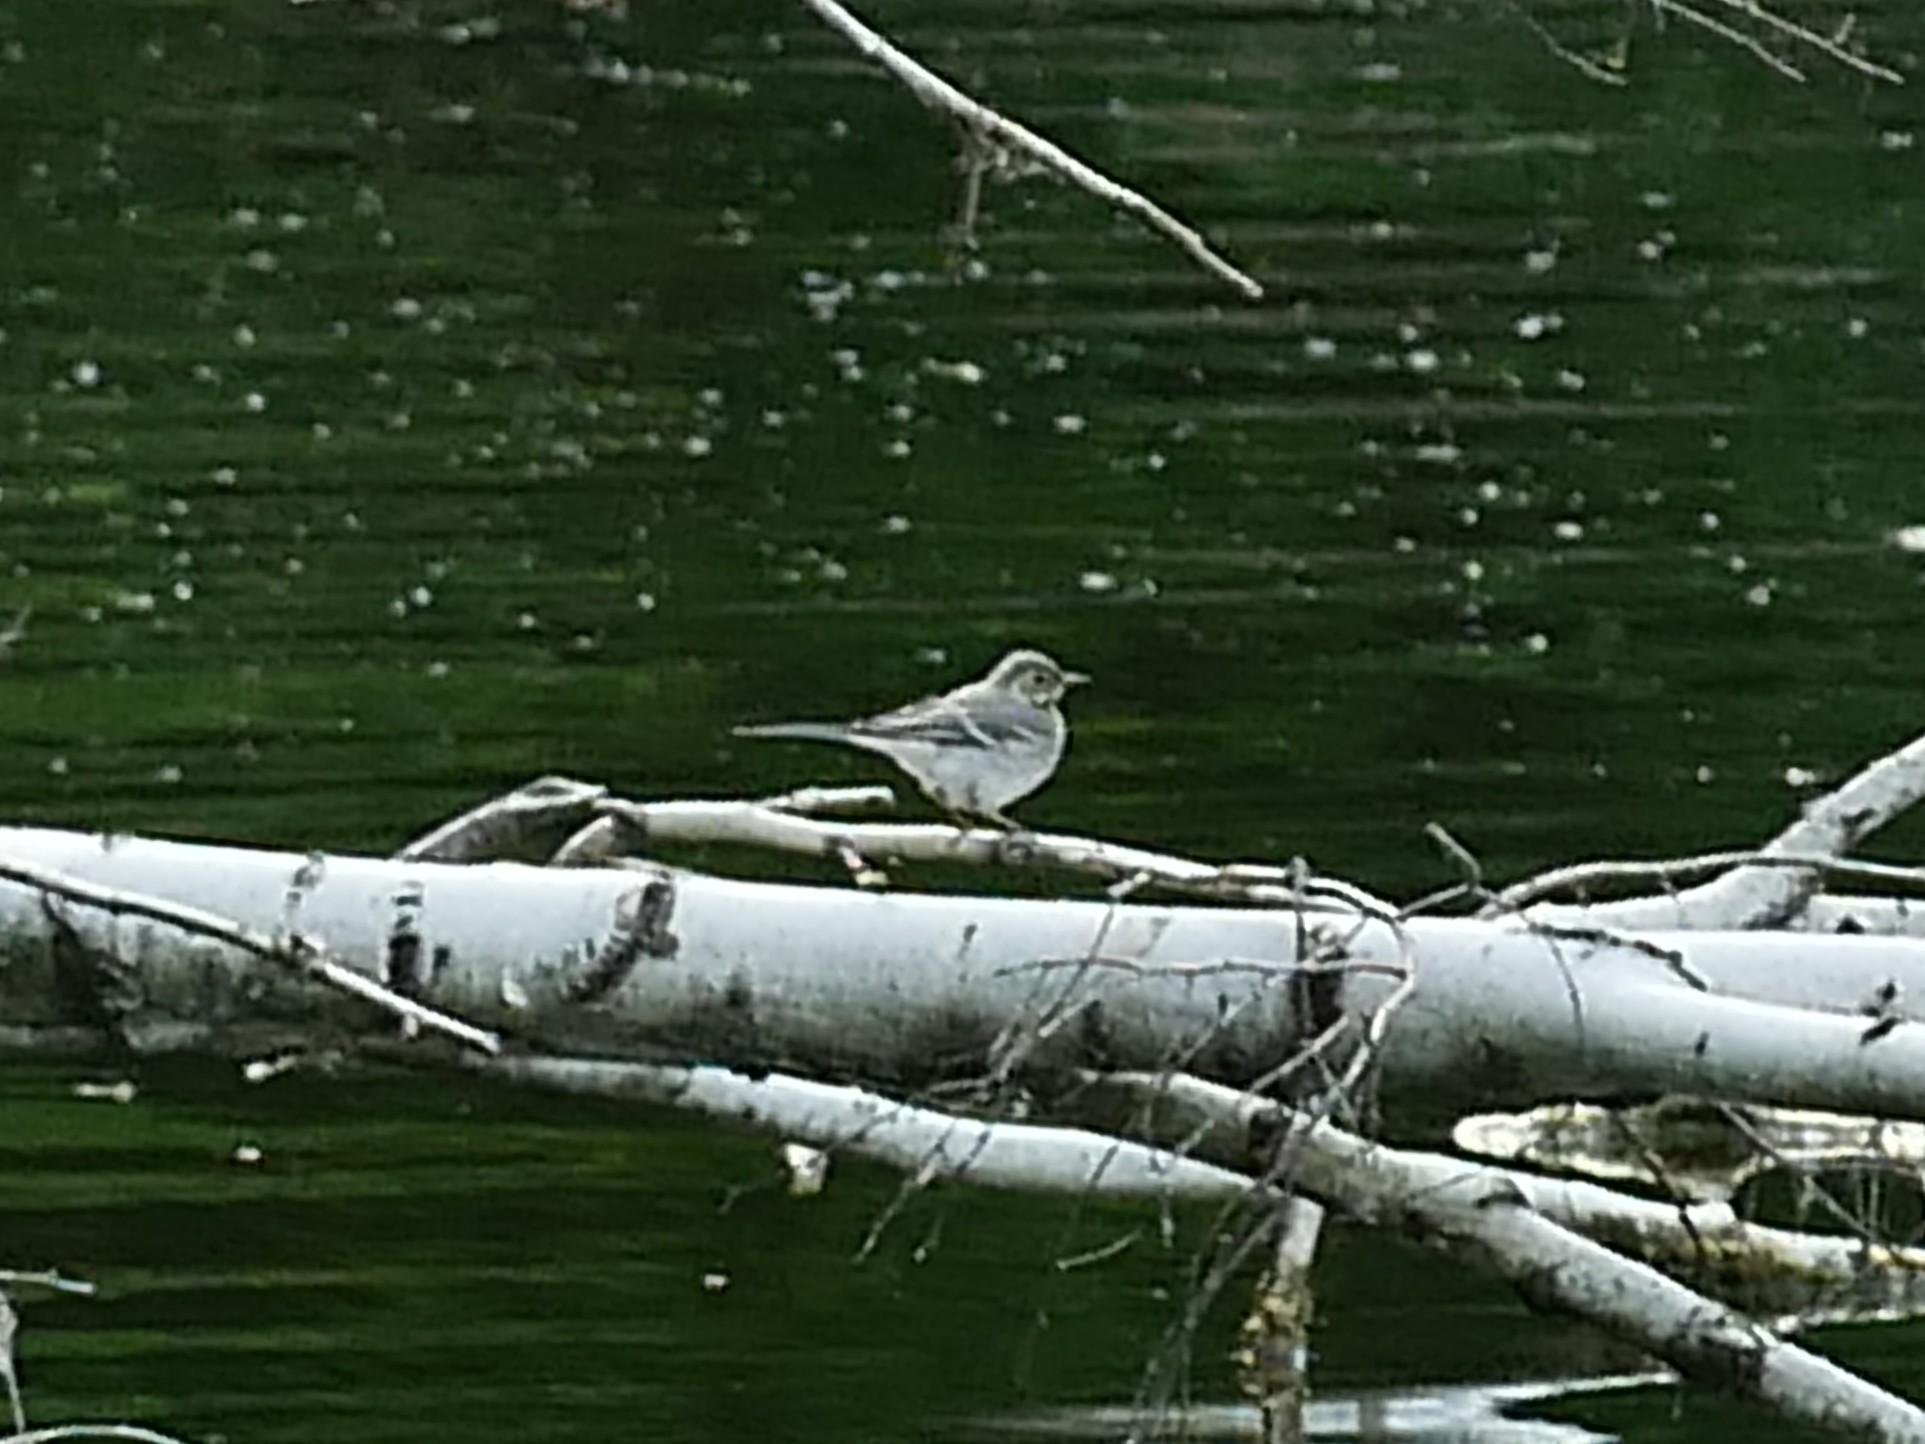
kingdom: Animalia
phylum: Chordata
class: Aves
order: Passeriformes
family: Motacillidae
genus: Motacilla
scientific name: Motacilla alba
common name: White wagtail
